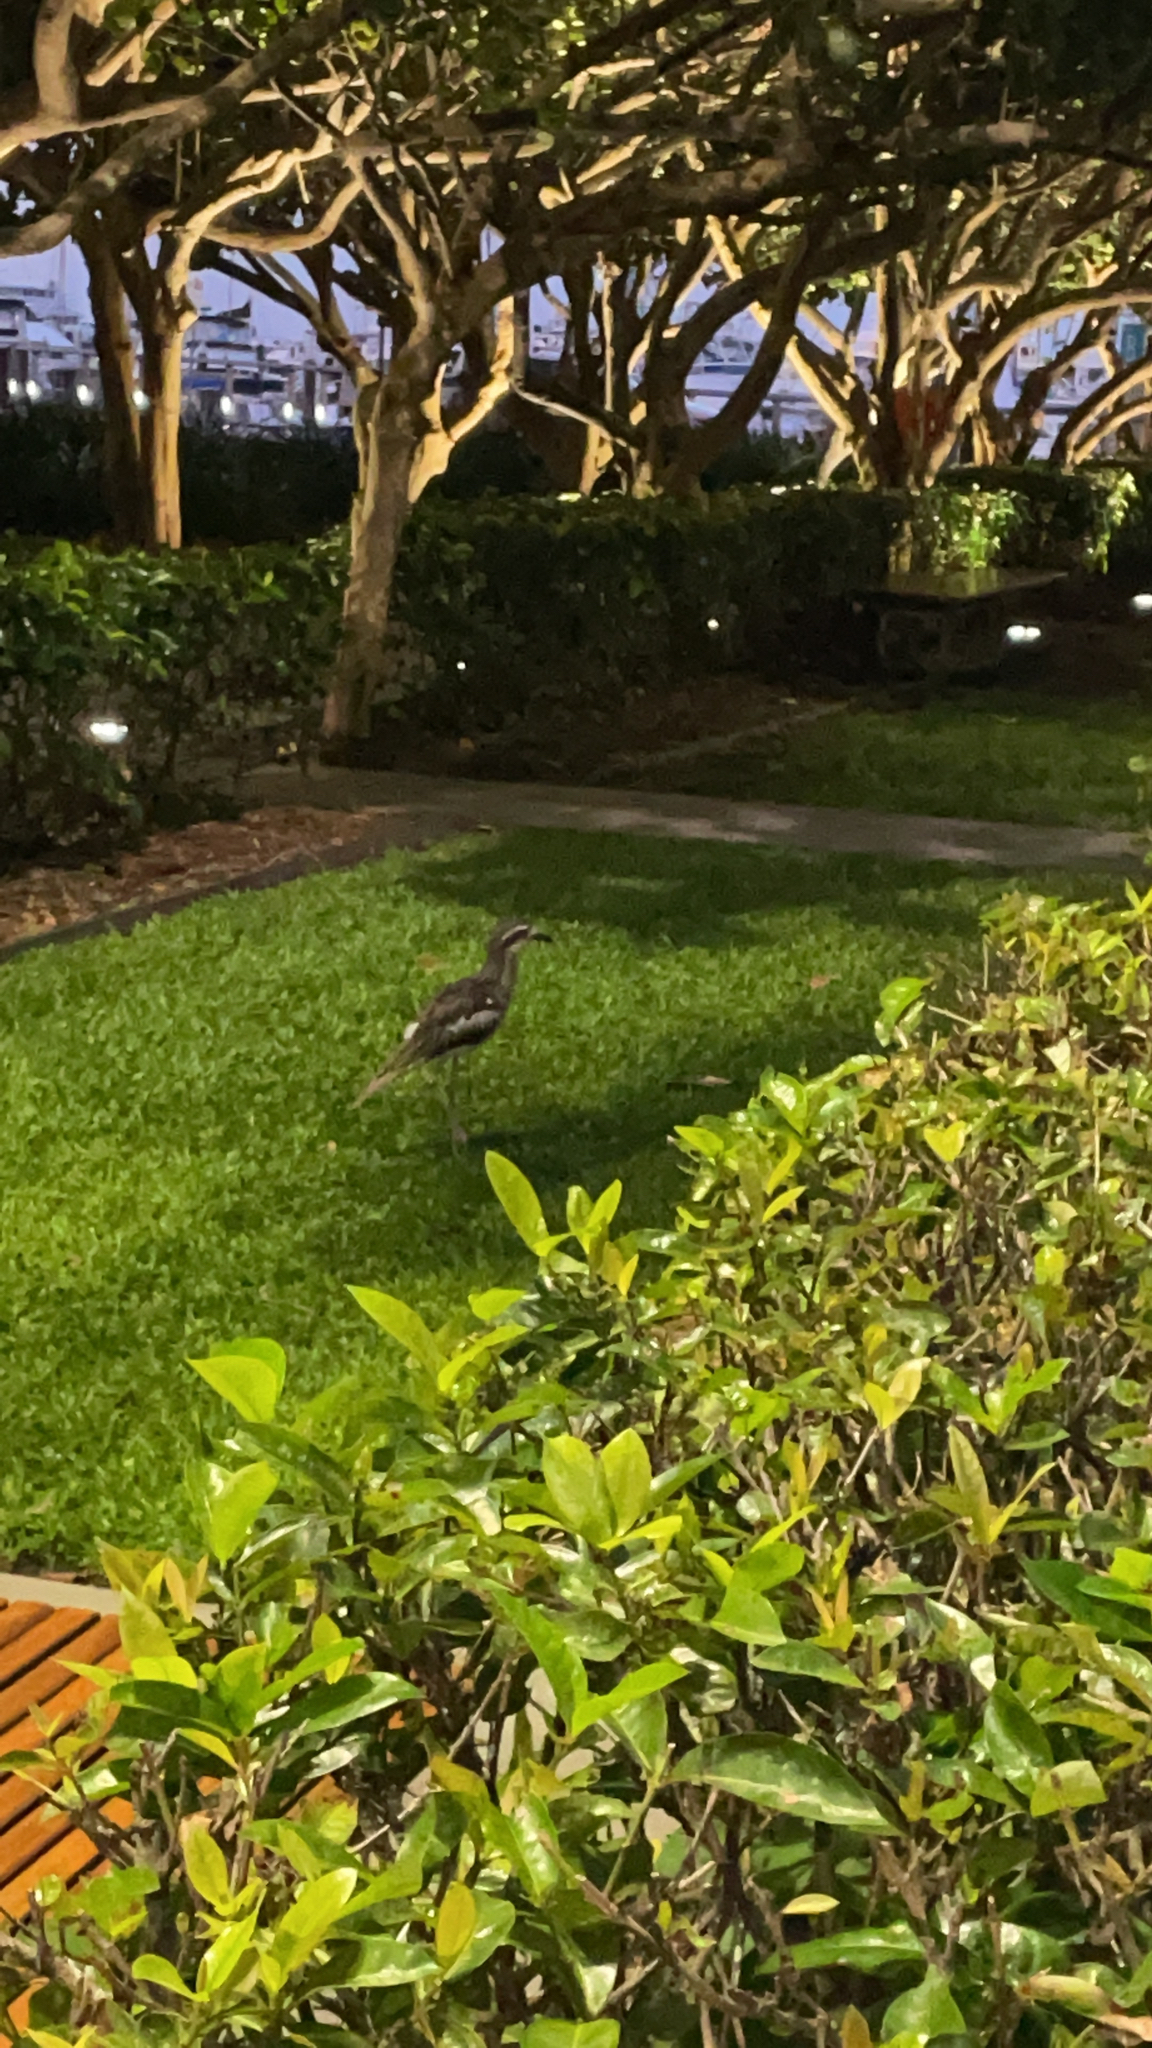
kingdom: Animalia
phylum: Chordata
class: Aves
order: Charadriiformes
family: Burhinidae
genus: Burhinus
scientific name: Burhinus grallarius
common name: Bush stone-curlew
